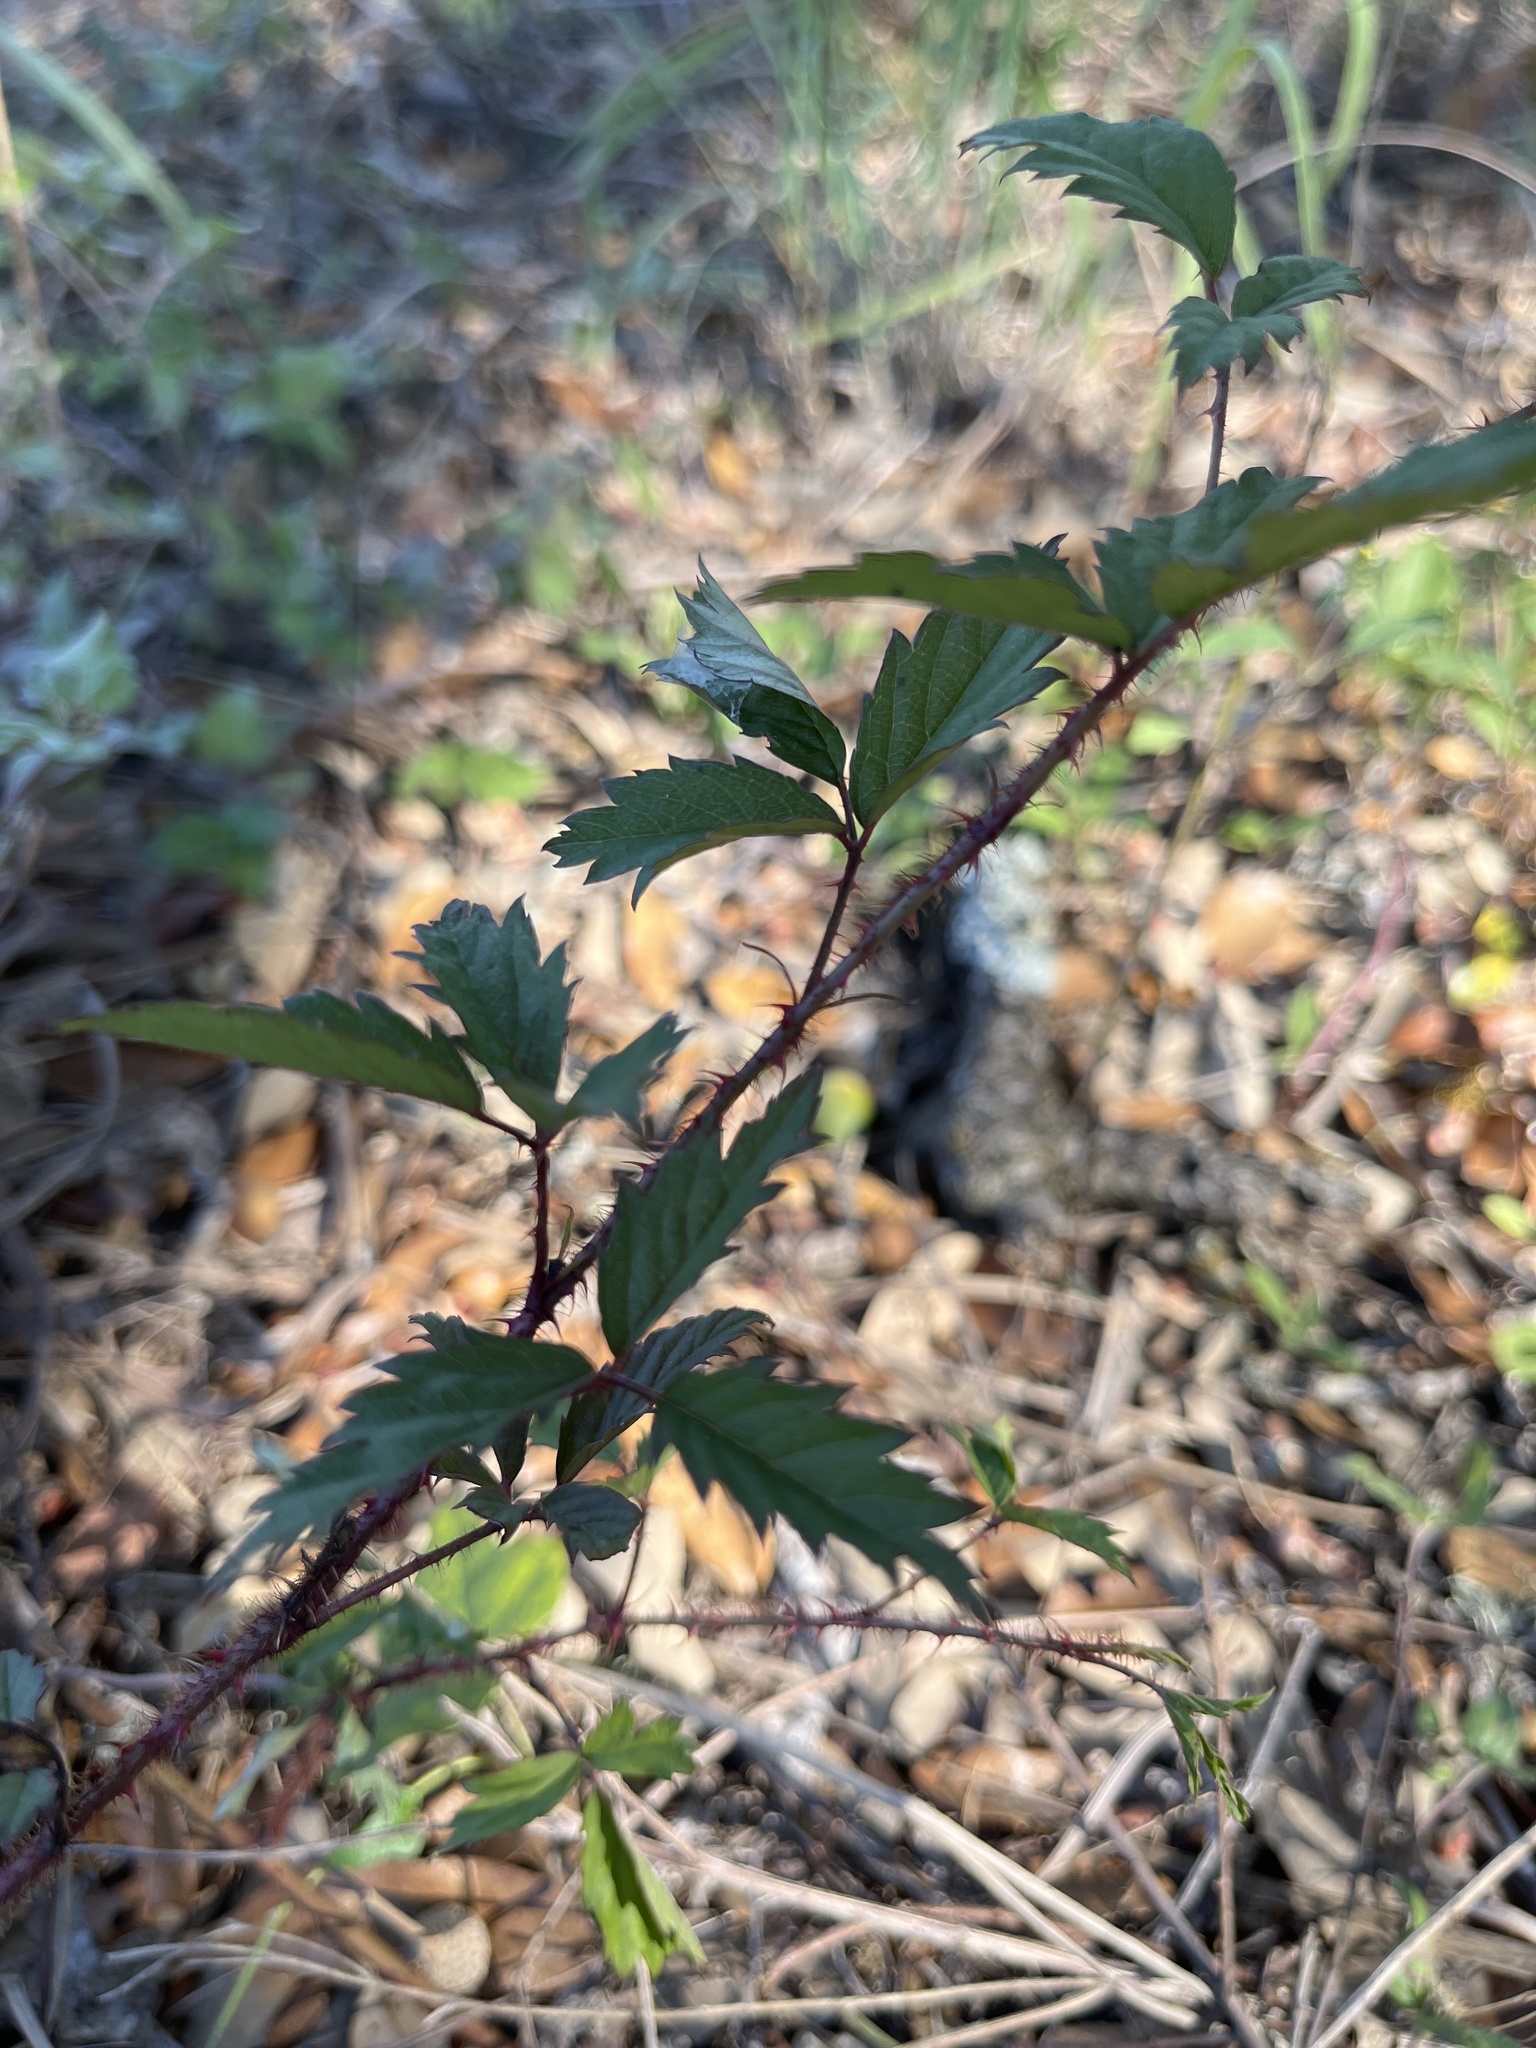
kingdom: Plantae
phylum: Tracheophyta
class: Magnoliopsida
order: Rosales
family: Rosaceae
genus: Rubus
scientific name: Rubus trivialis
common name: Southern dewberry
